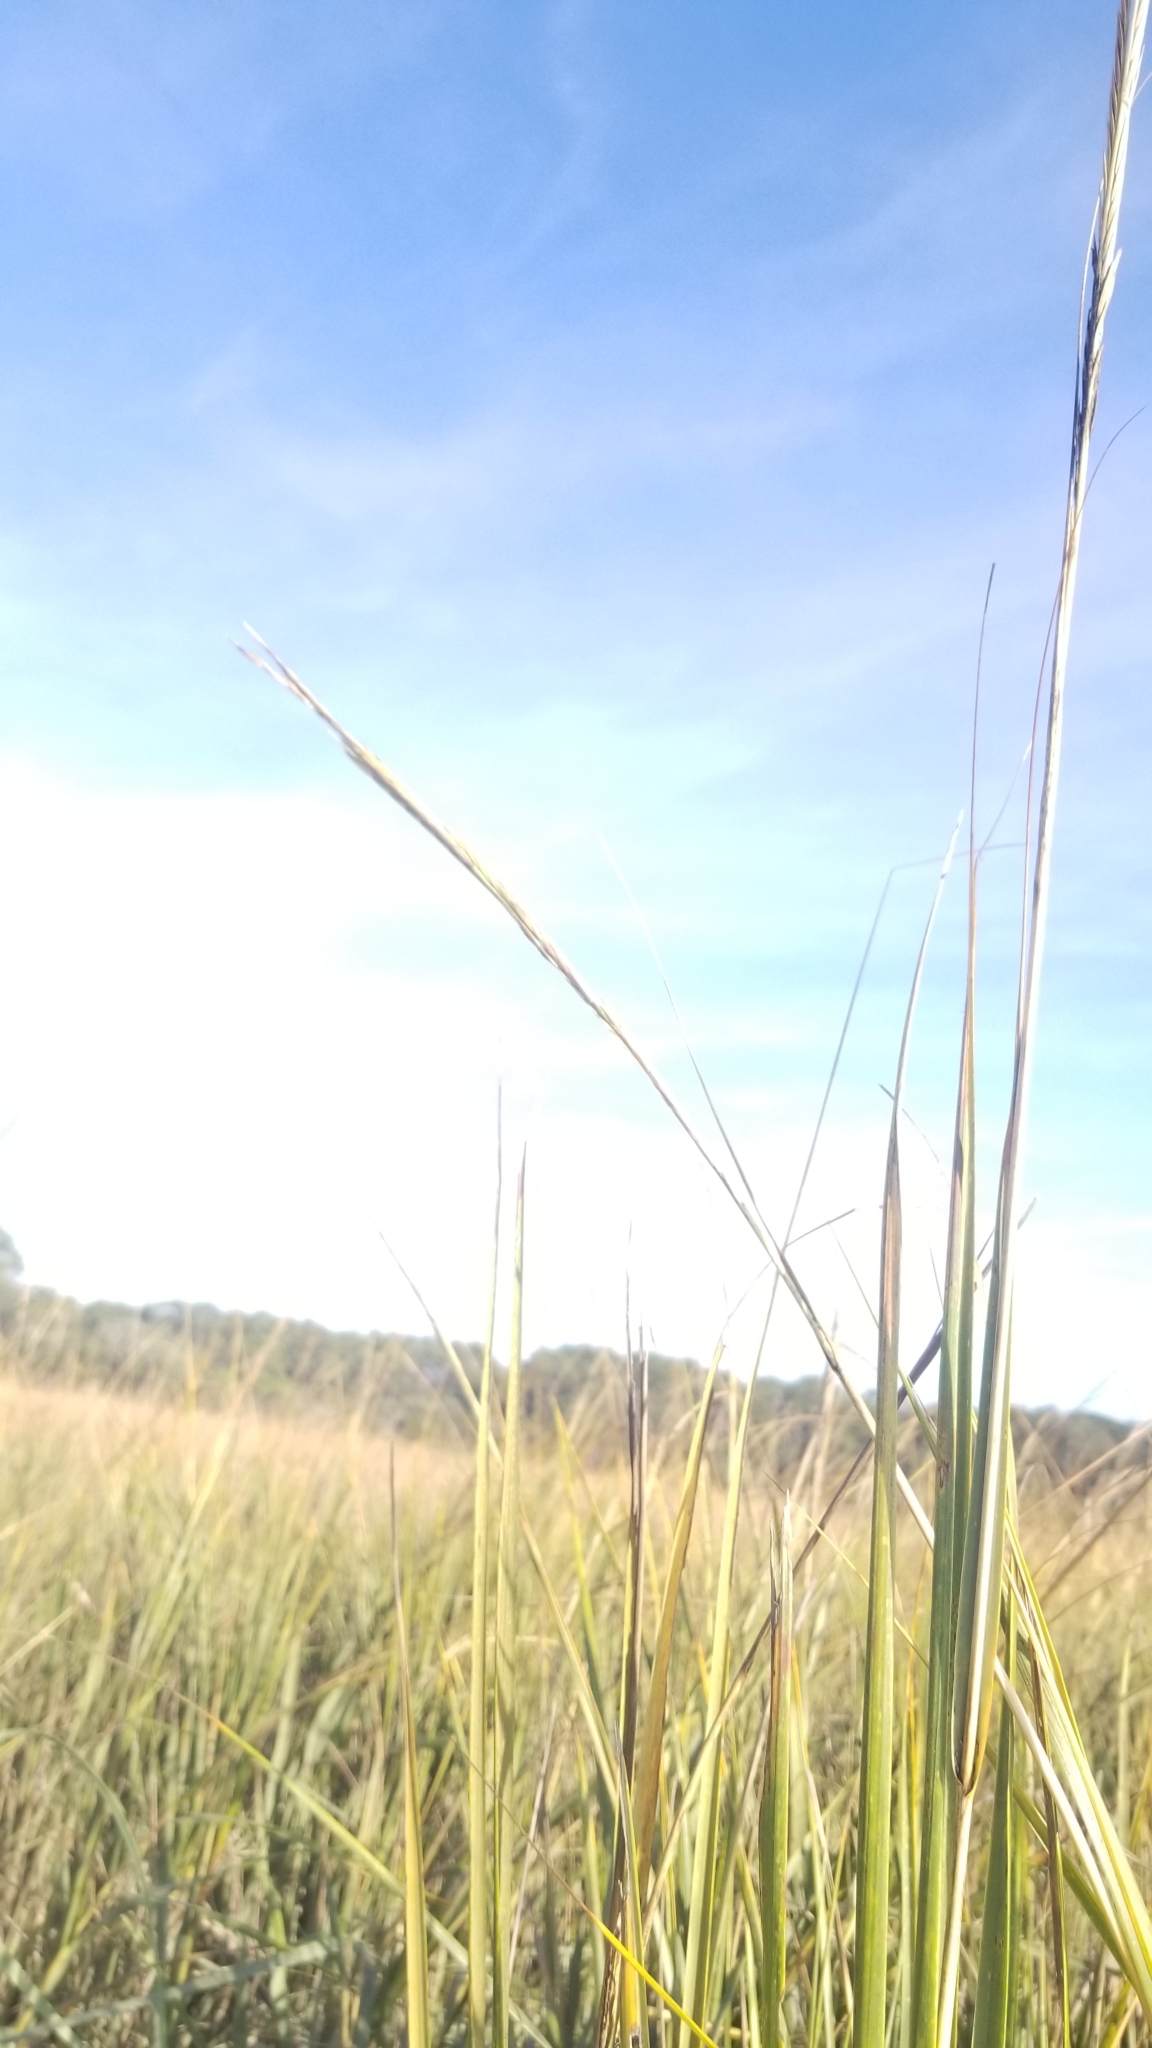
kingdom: Plantae
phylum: Tracheophyta
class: Liliopsida
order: Poales
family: Poaceae
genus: Sporobolus
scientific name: Sporobolus alterniflorus
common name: Atlantic cordgrass
